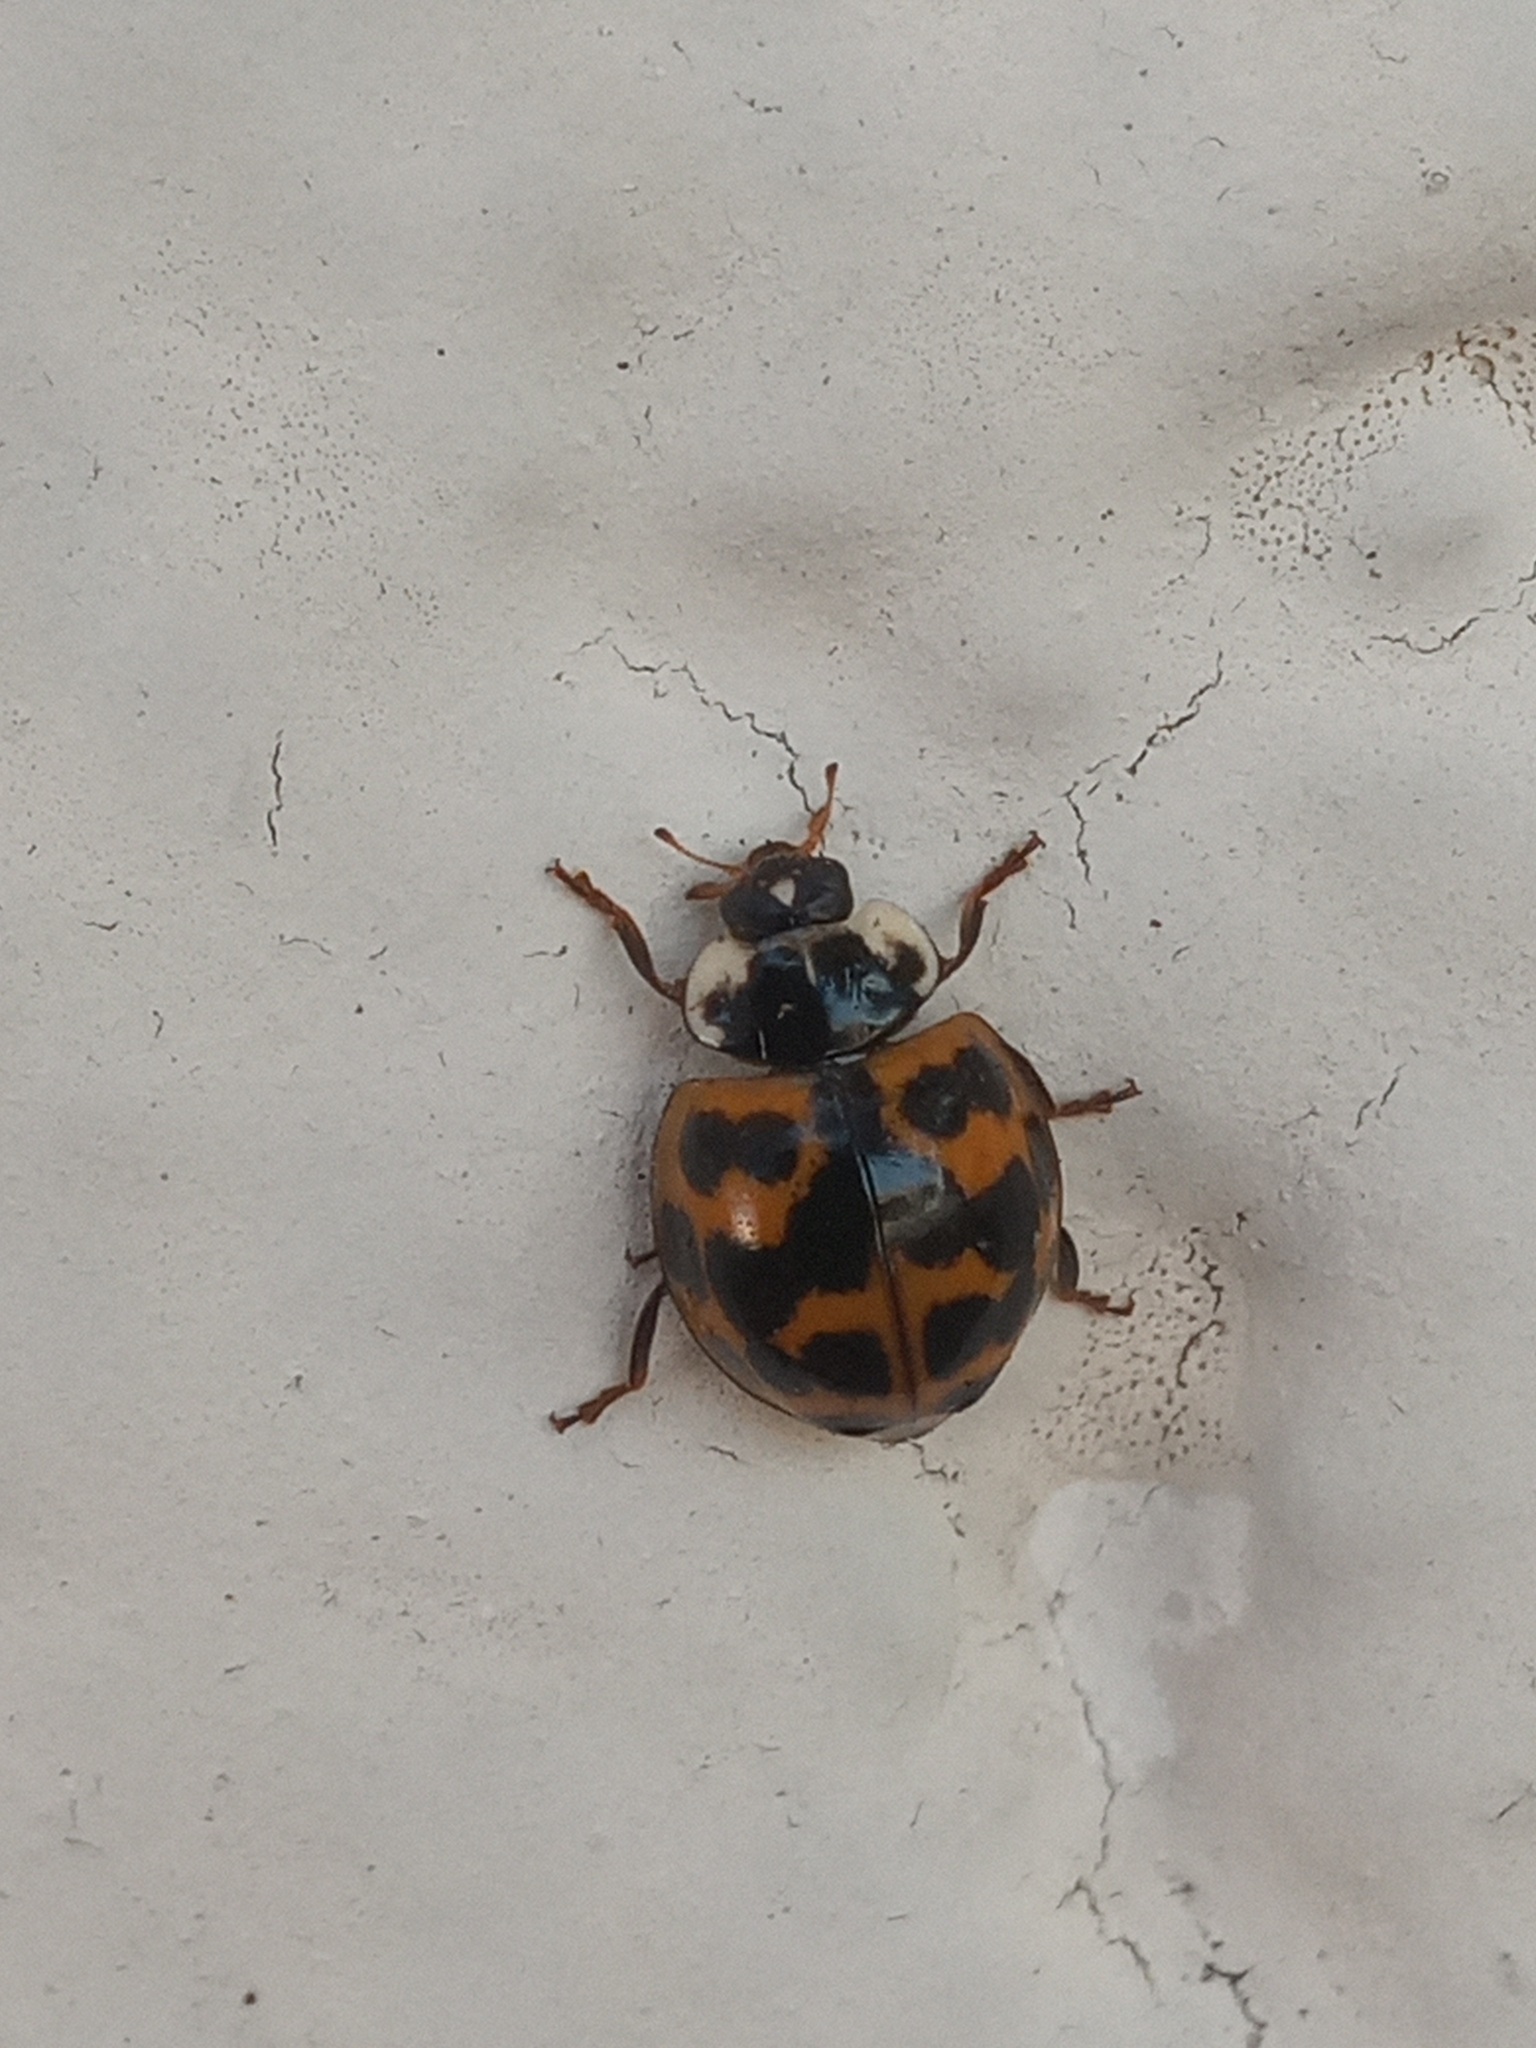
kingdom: Animalia
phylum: Arthropoda
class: Insecta
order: Coleoptera
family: Coccinellidae
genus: Harmonia
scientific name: Harmonia axyridis
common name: Harlequin ladybird
